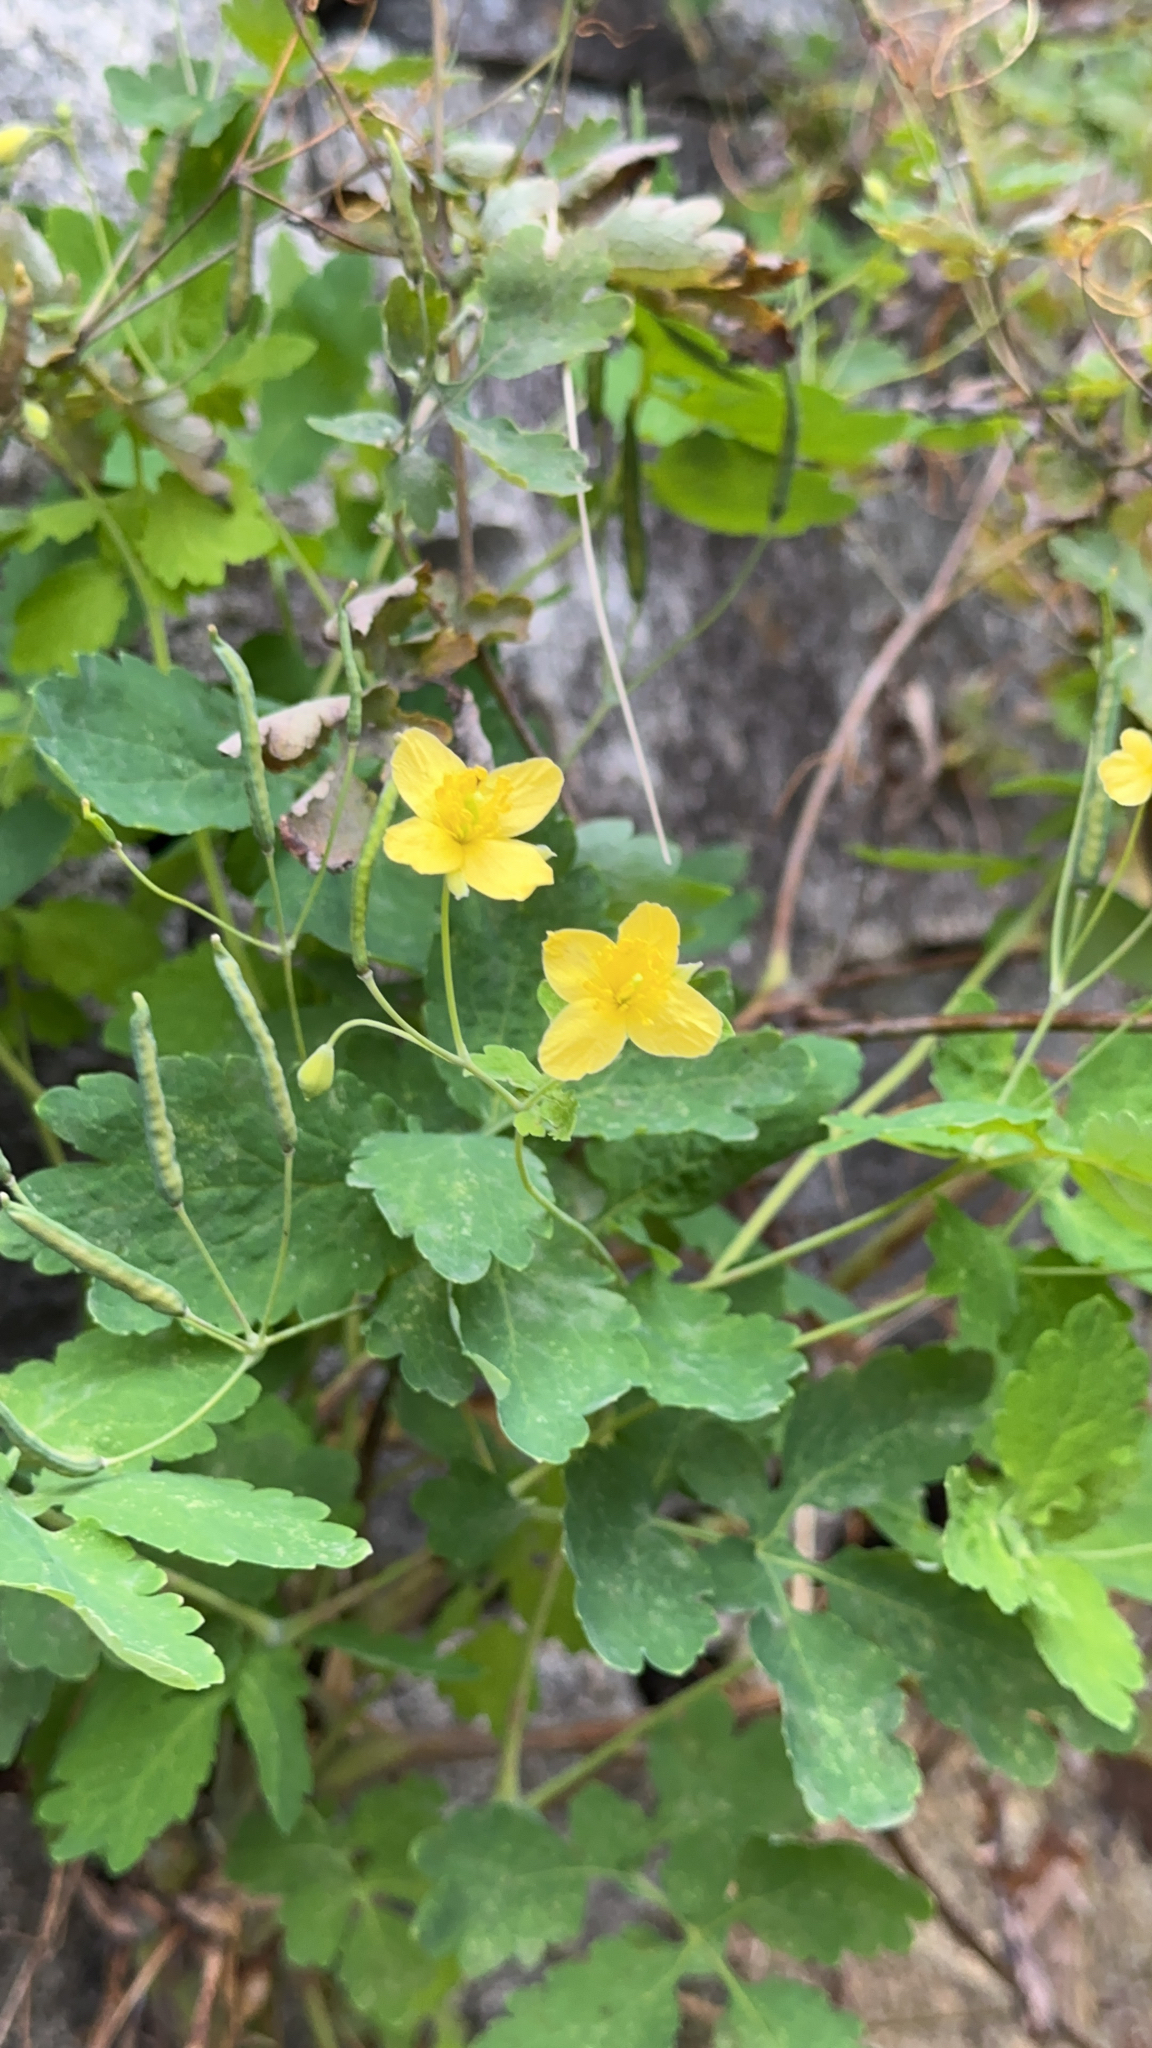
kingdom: Plantae
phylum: Tracheophyta
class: Magnoliopsida
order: Ranunculales
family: Papaveraceae
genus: Chelidonium
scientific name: Chelidonium majus
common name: Greater celandine
